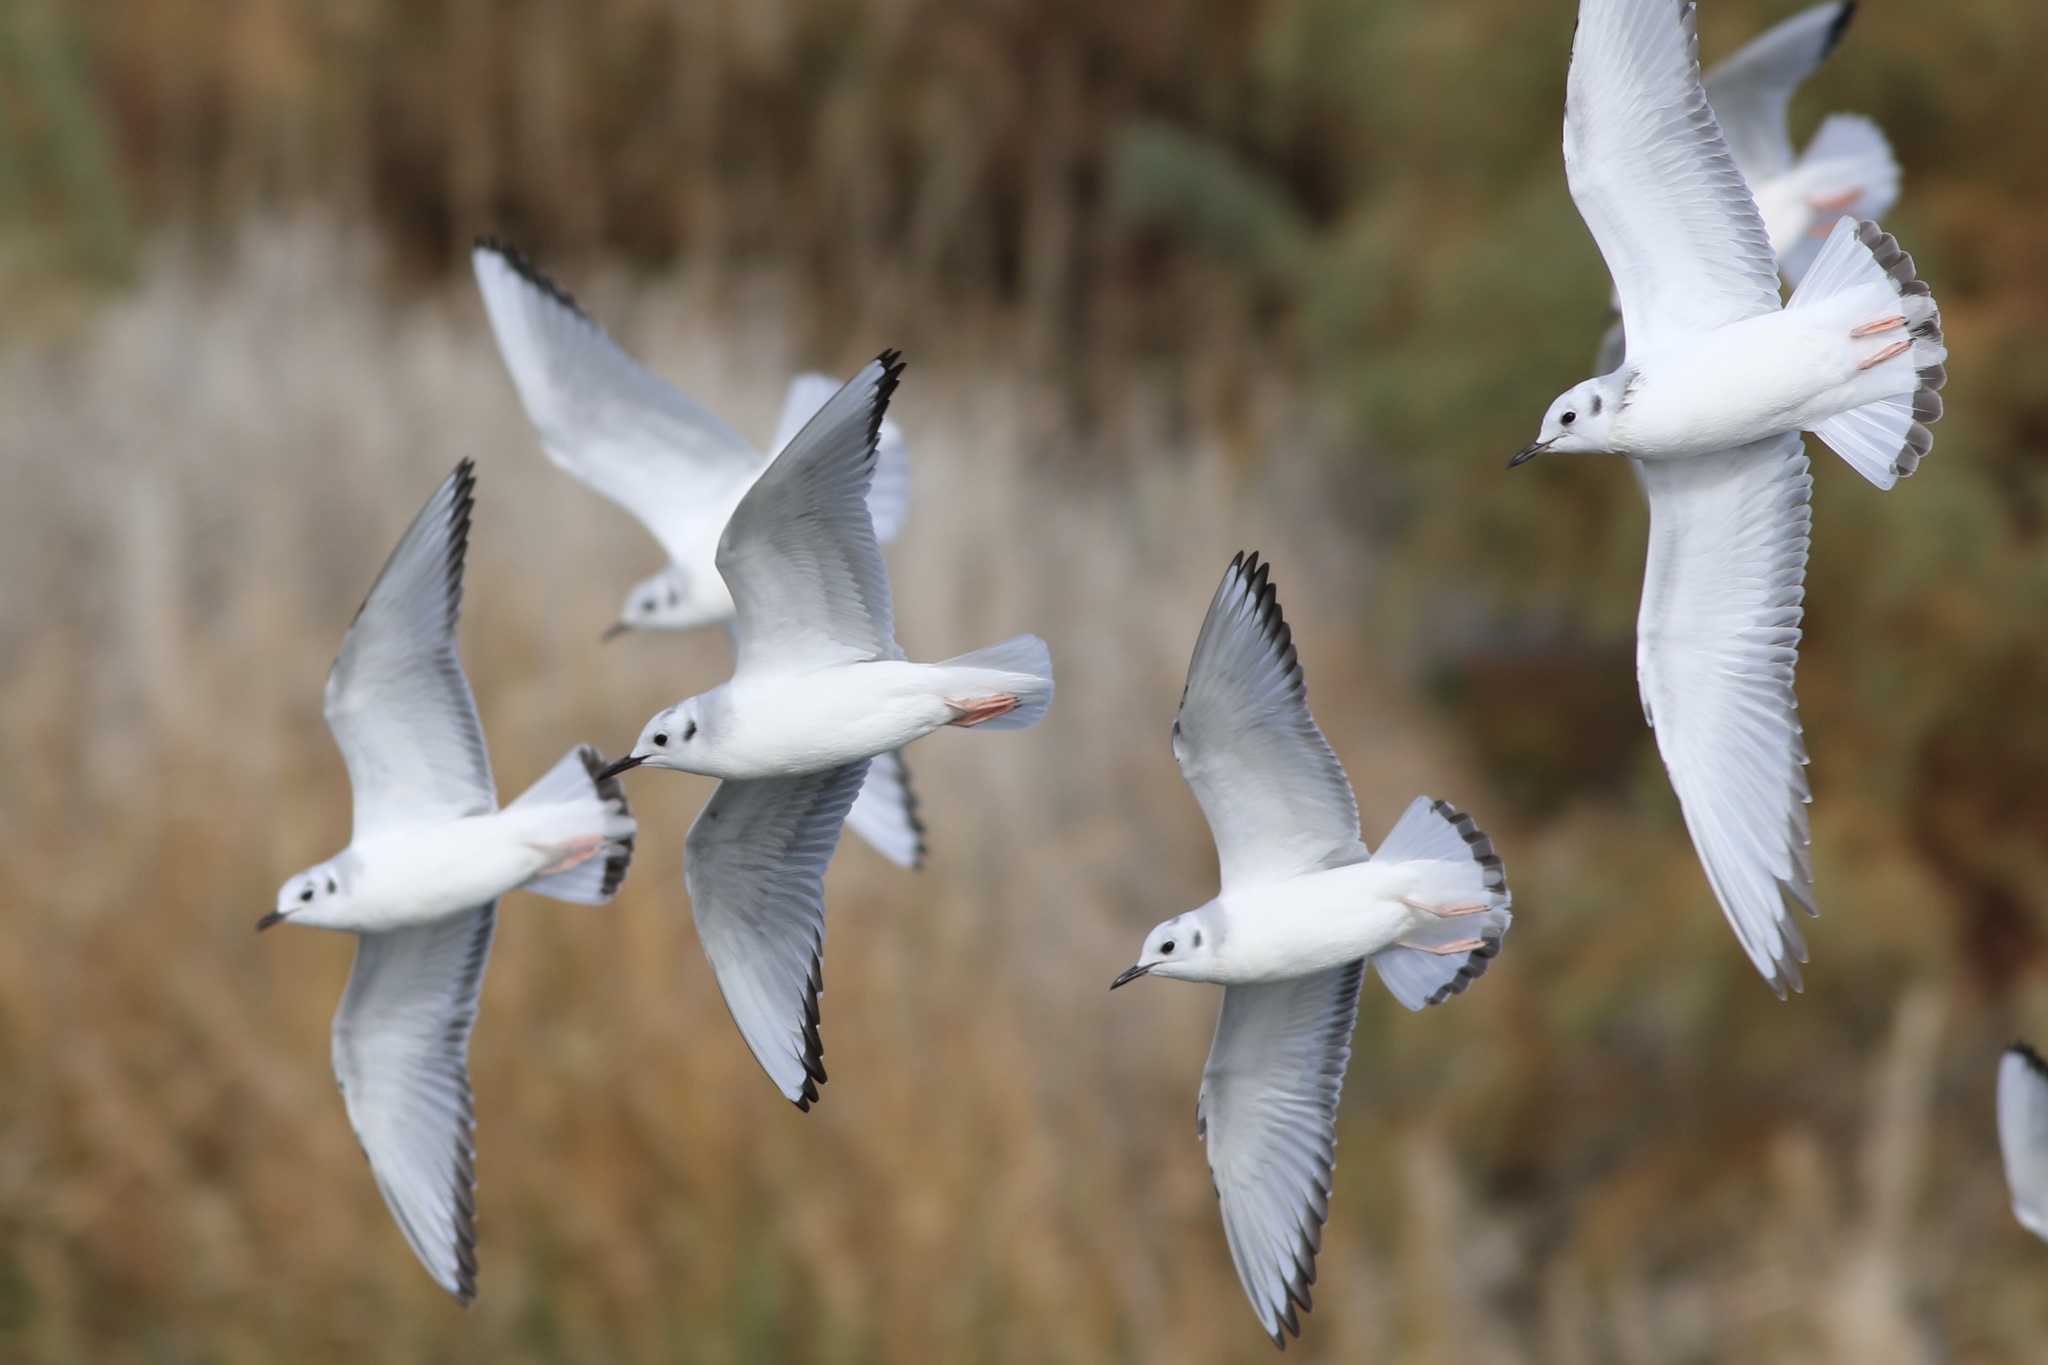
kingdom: Animalia
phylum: Chordata
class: Aves
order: Charadriiformes
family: Laridae
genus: Chroicocephalus
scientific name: Chroicocephalus philadelphia
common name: Bonaparte's gull
